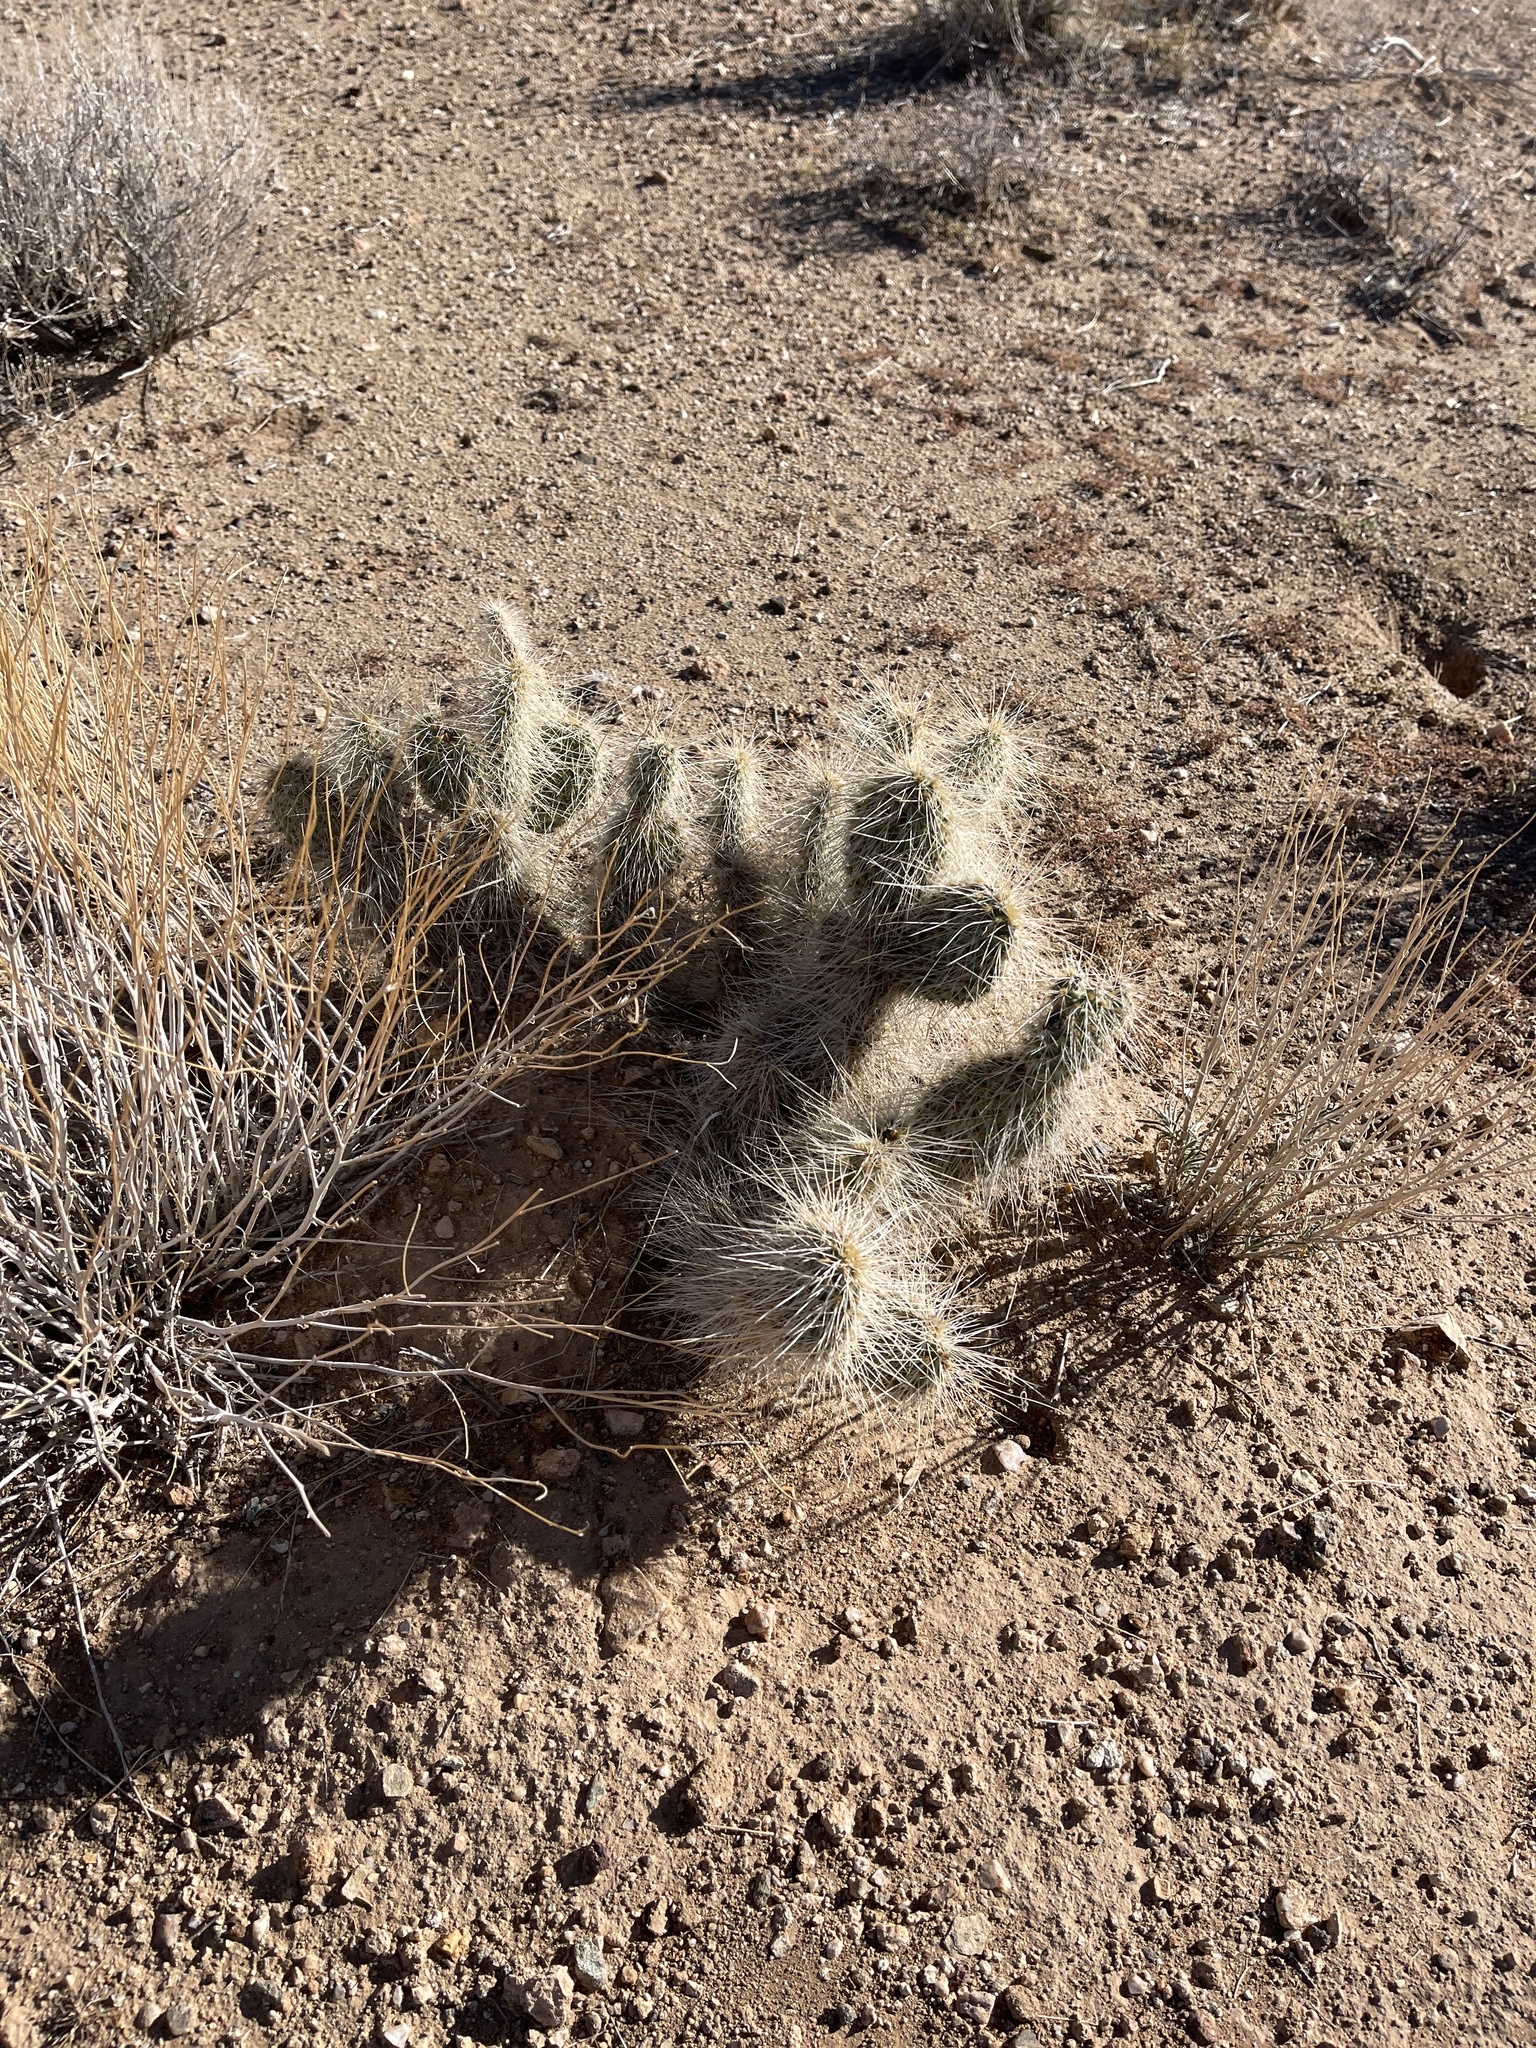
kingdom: Plantae
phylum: Tracheophyta
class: Magnoliopsida
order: Caryophyllales
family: Cactaceae
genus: Opuntia
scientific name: Opuntia polyacantha
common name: Plains prickly-pear
